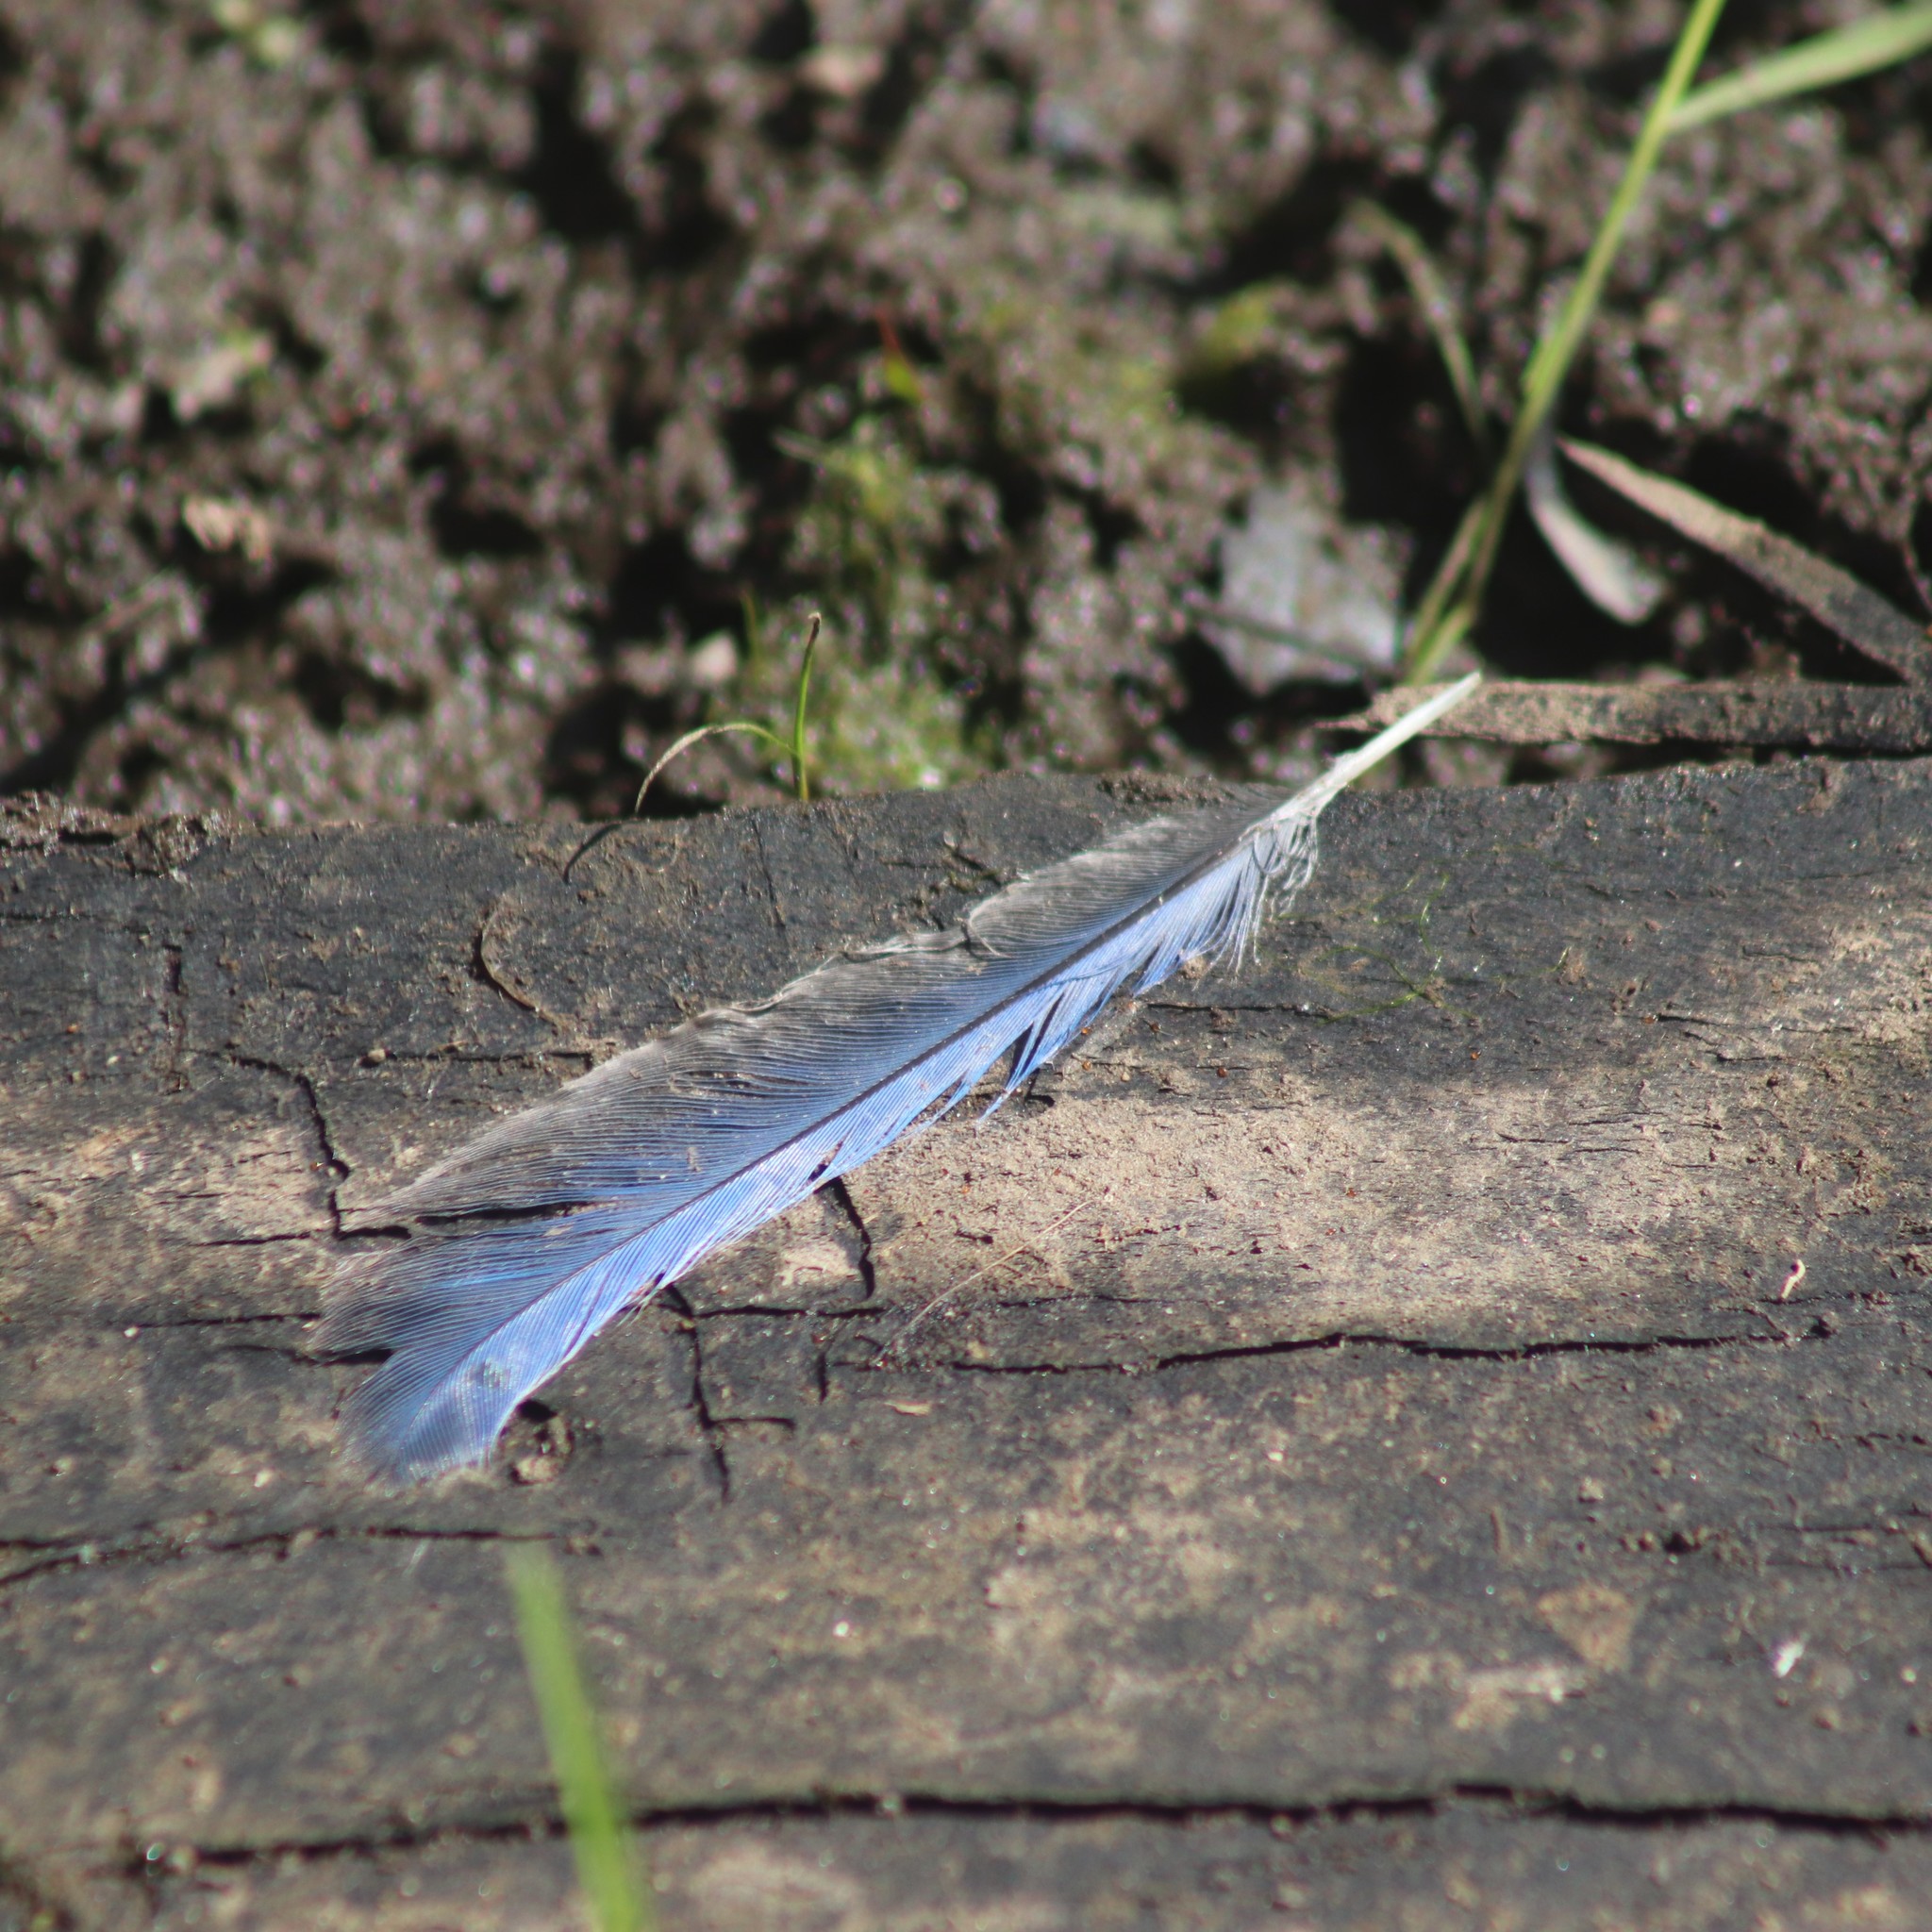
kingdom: Animalia
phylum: Chordata
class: Aves
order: Passeriformes
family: Corvidae
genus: Cyanocitta
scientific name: Cyanocitta cristata
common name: Blue jay
